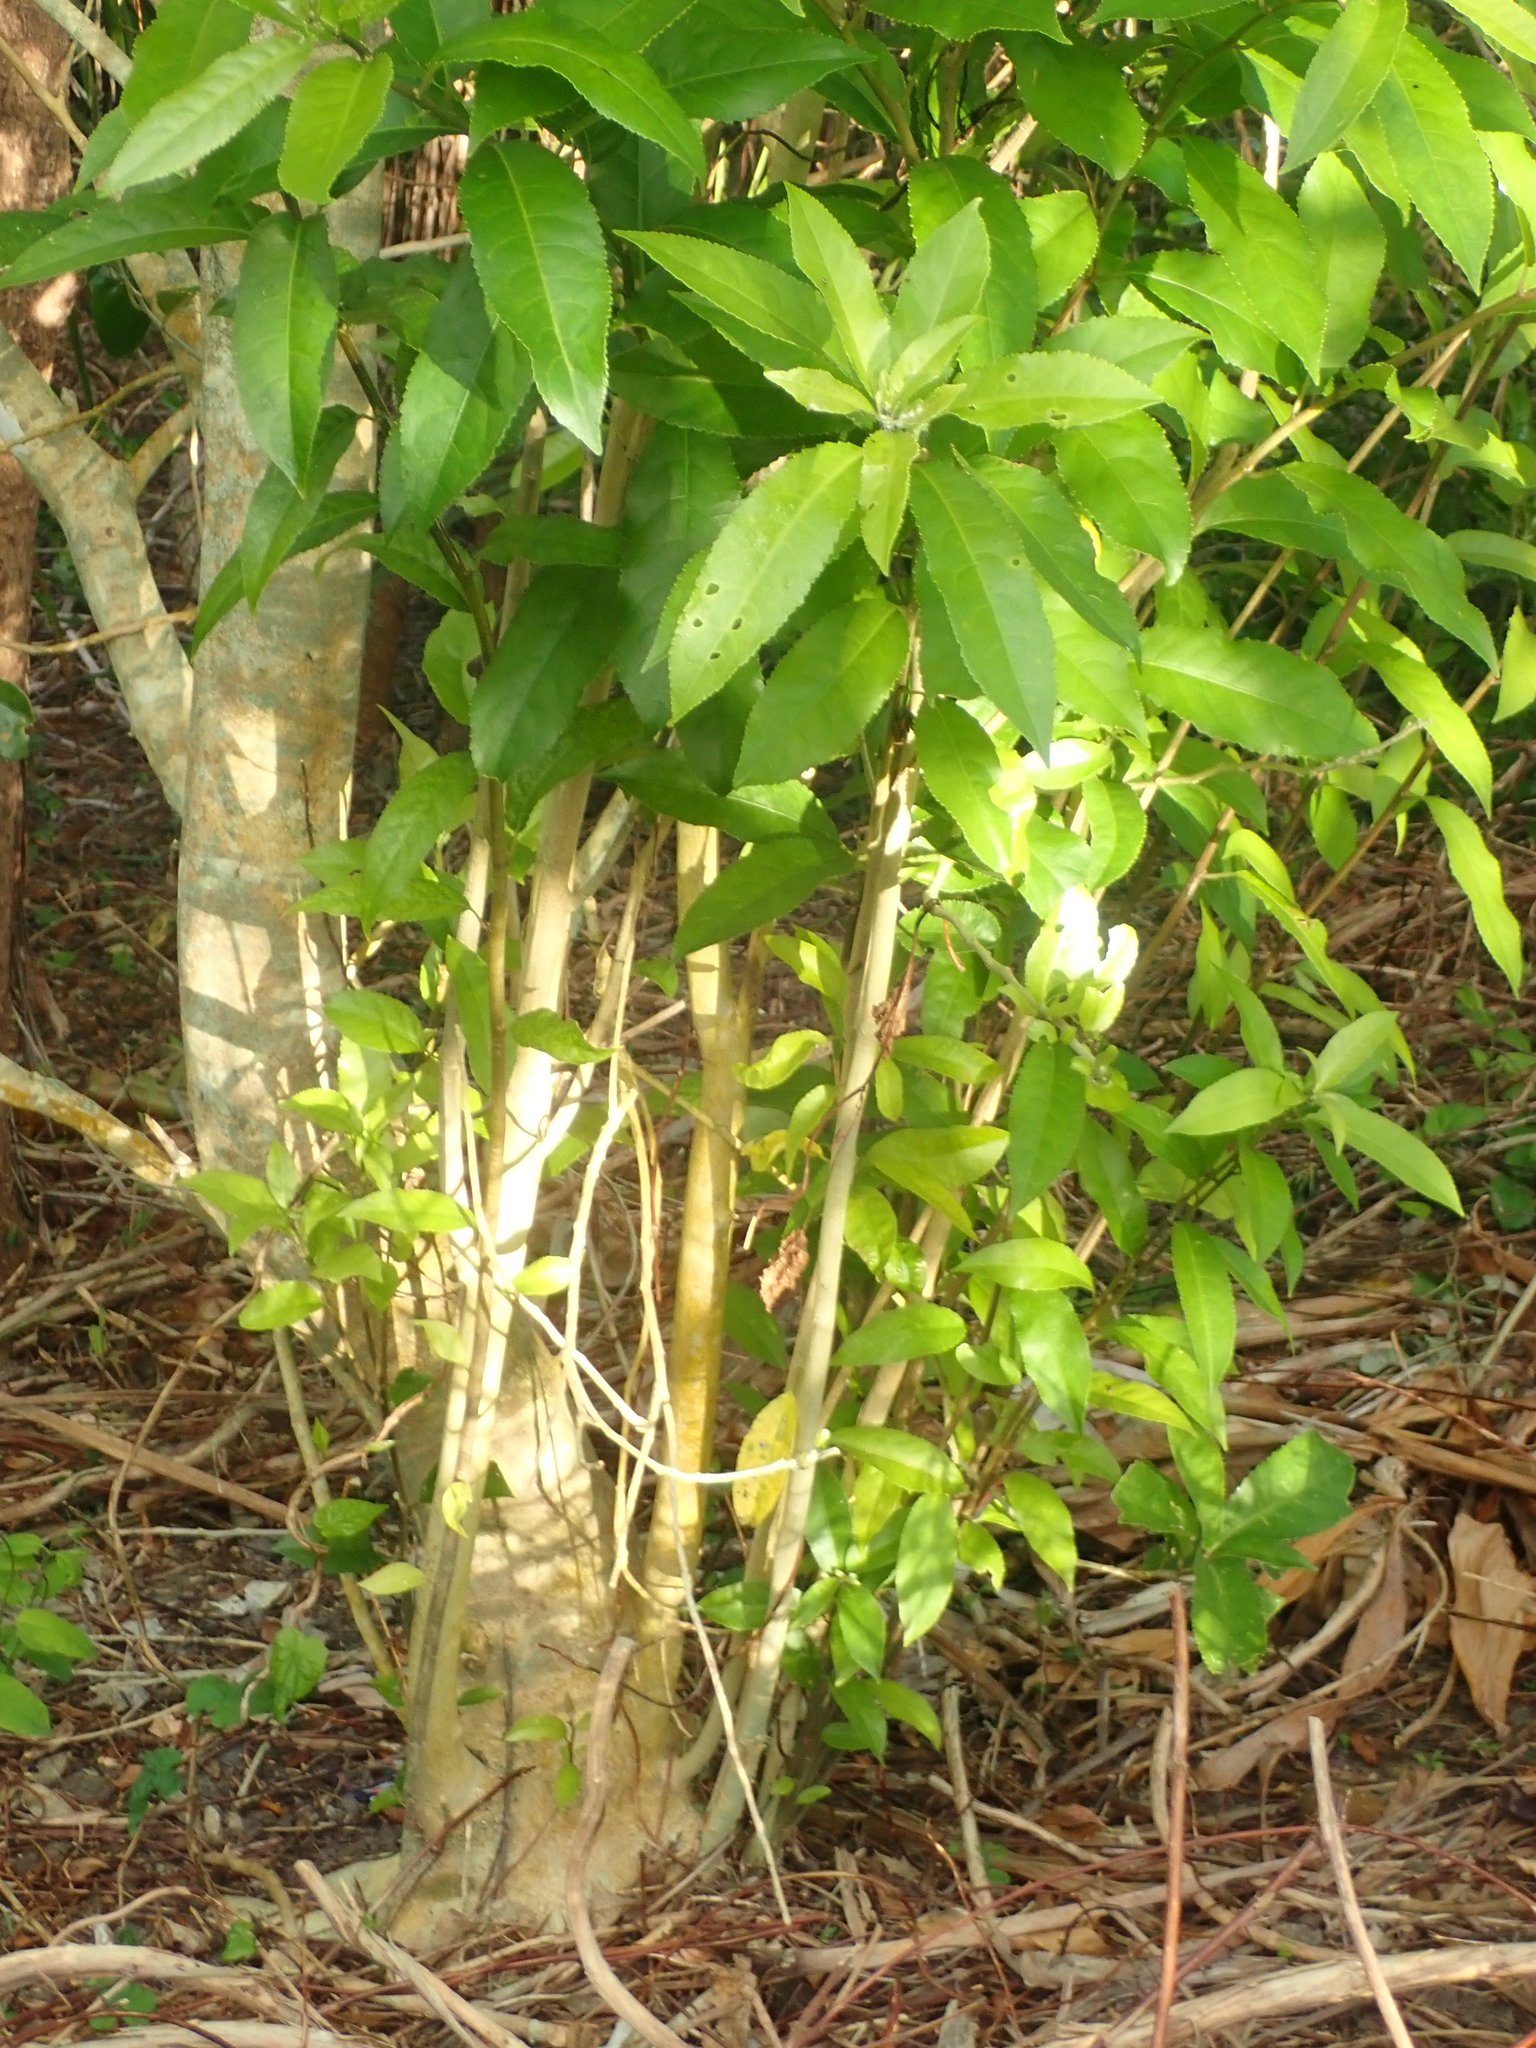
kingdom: Plantae
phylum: Tracheophyta
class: Magnoliopsida
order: Malpighiales
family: Violaceae
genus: Melicytus
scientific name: Melicytus ramiflorus
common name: Mahoe
